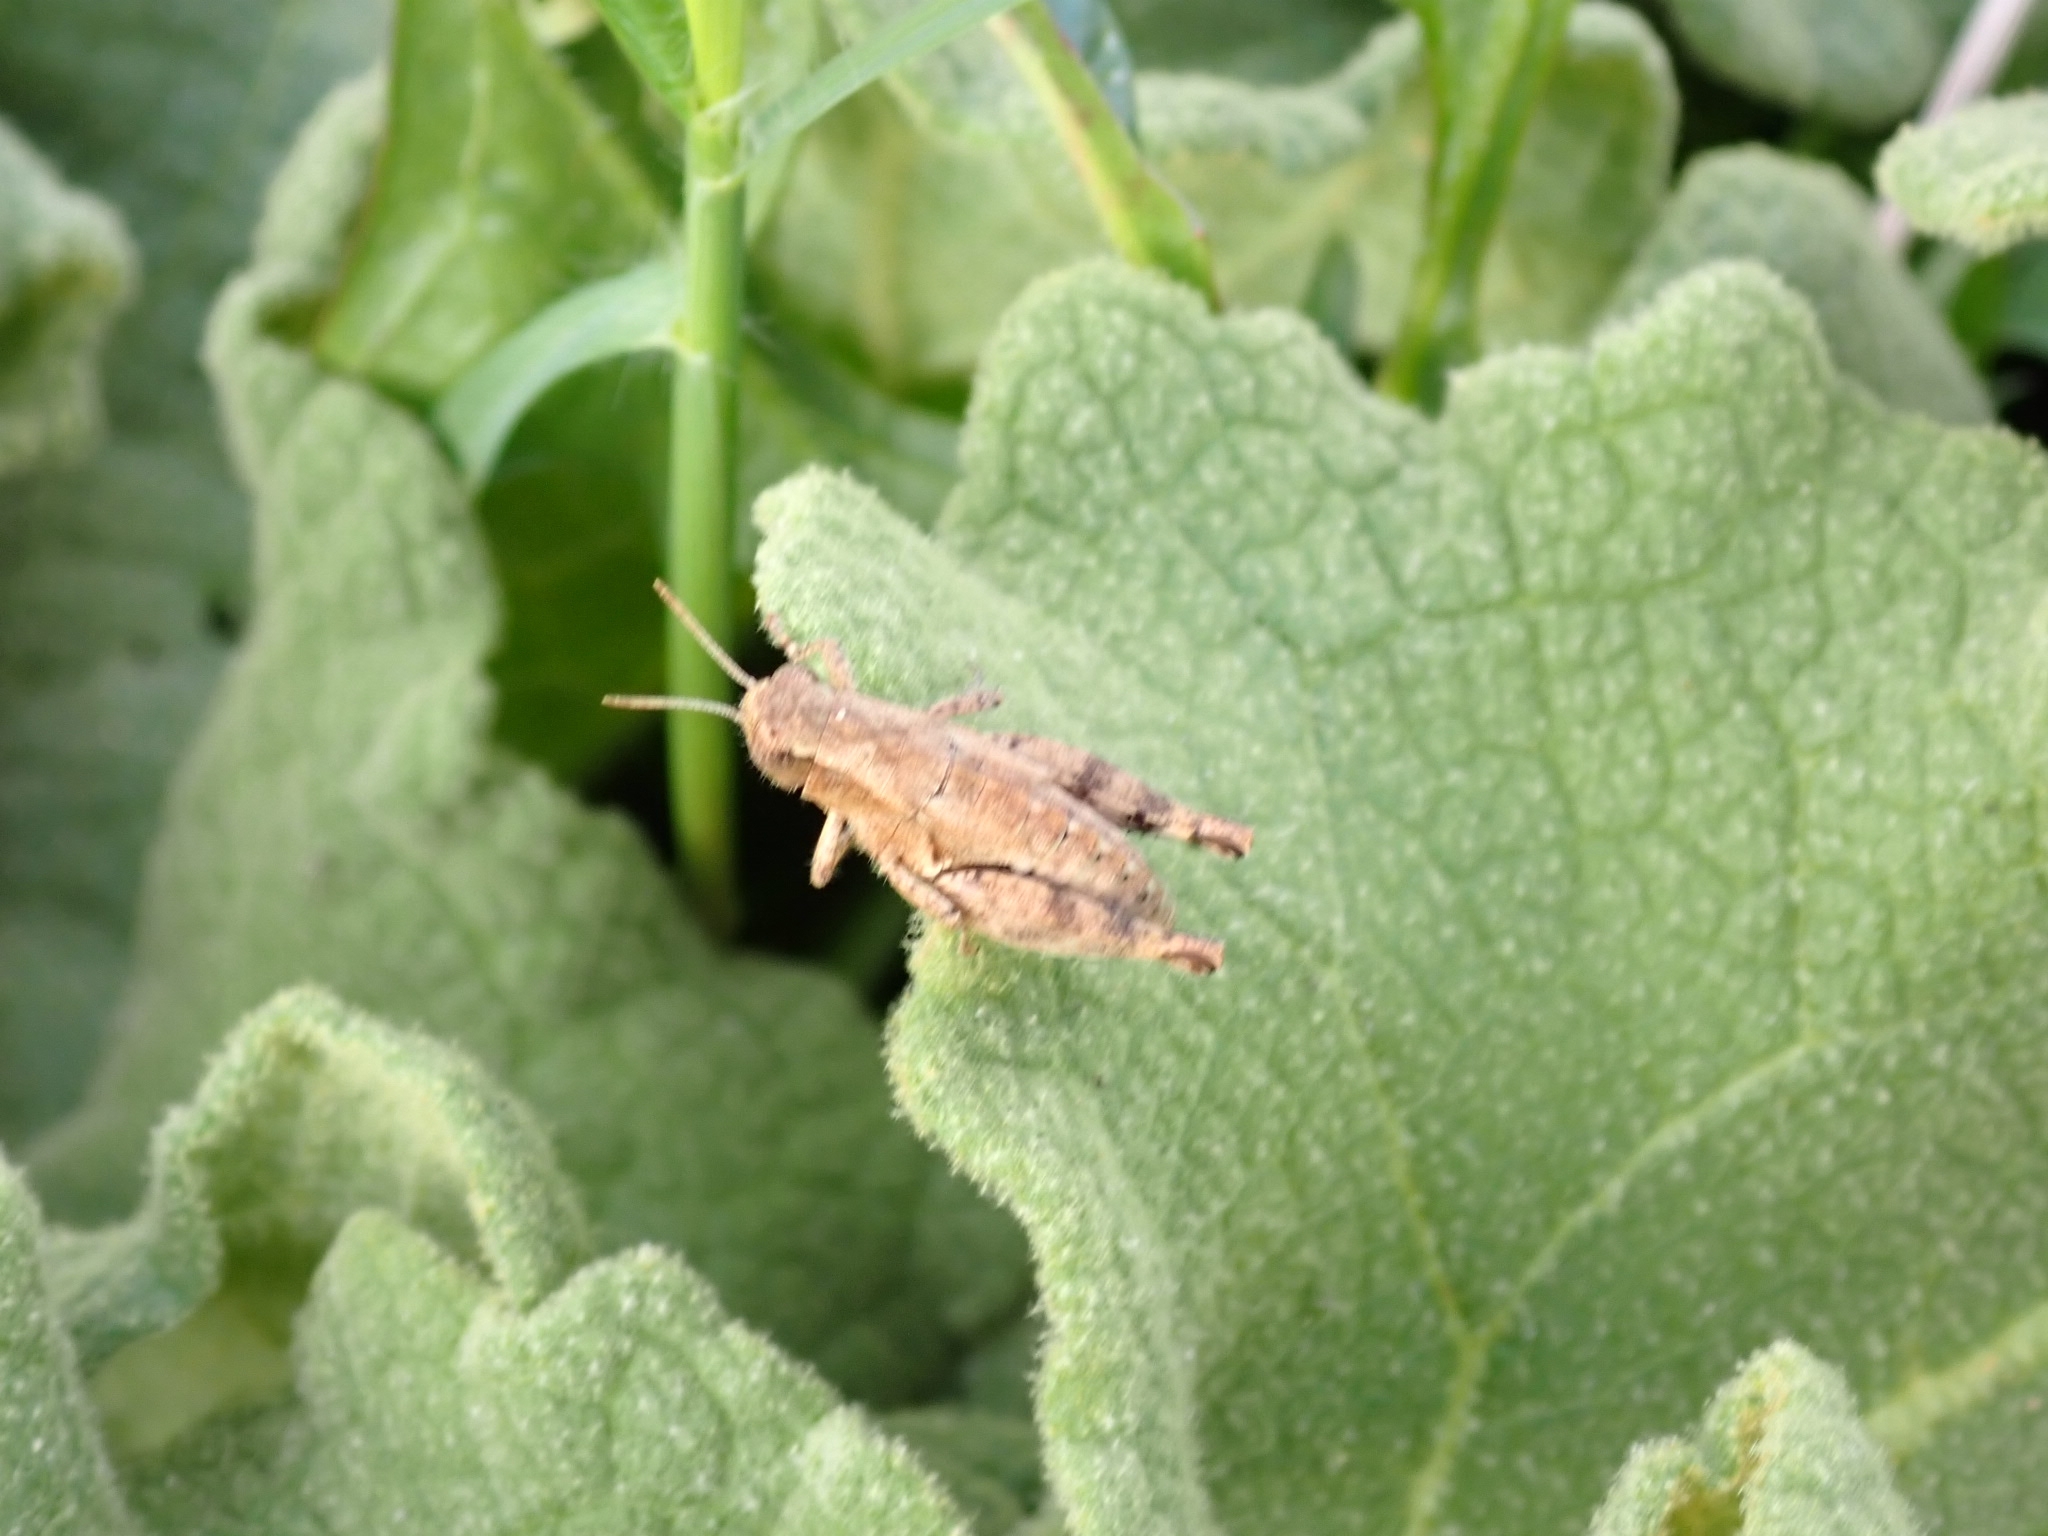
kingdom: Animalia
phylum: Arthropoda
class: Insecta
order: Orthoptera
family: Acrididae
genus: Pezotettix
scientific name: Pezotettix giornae
